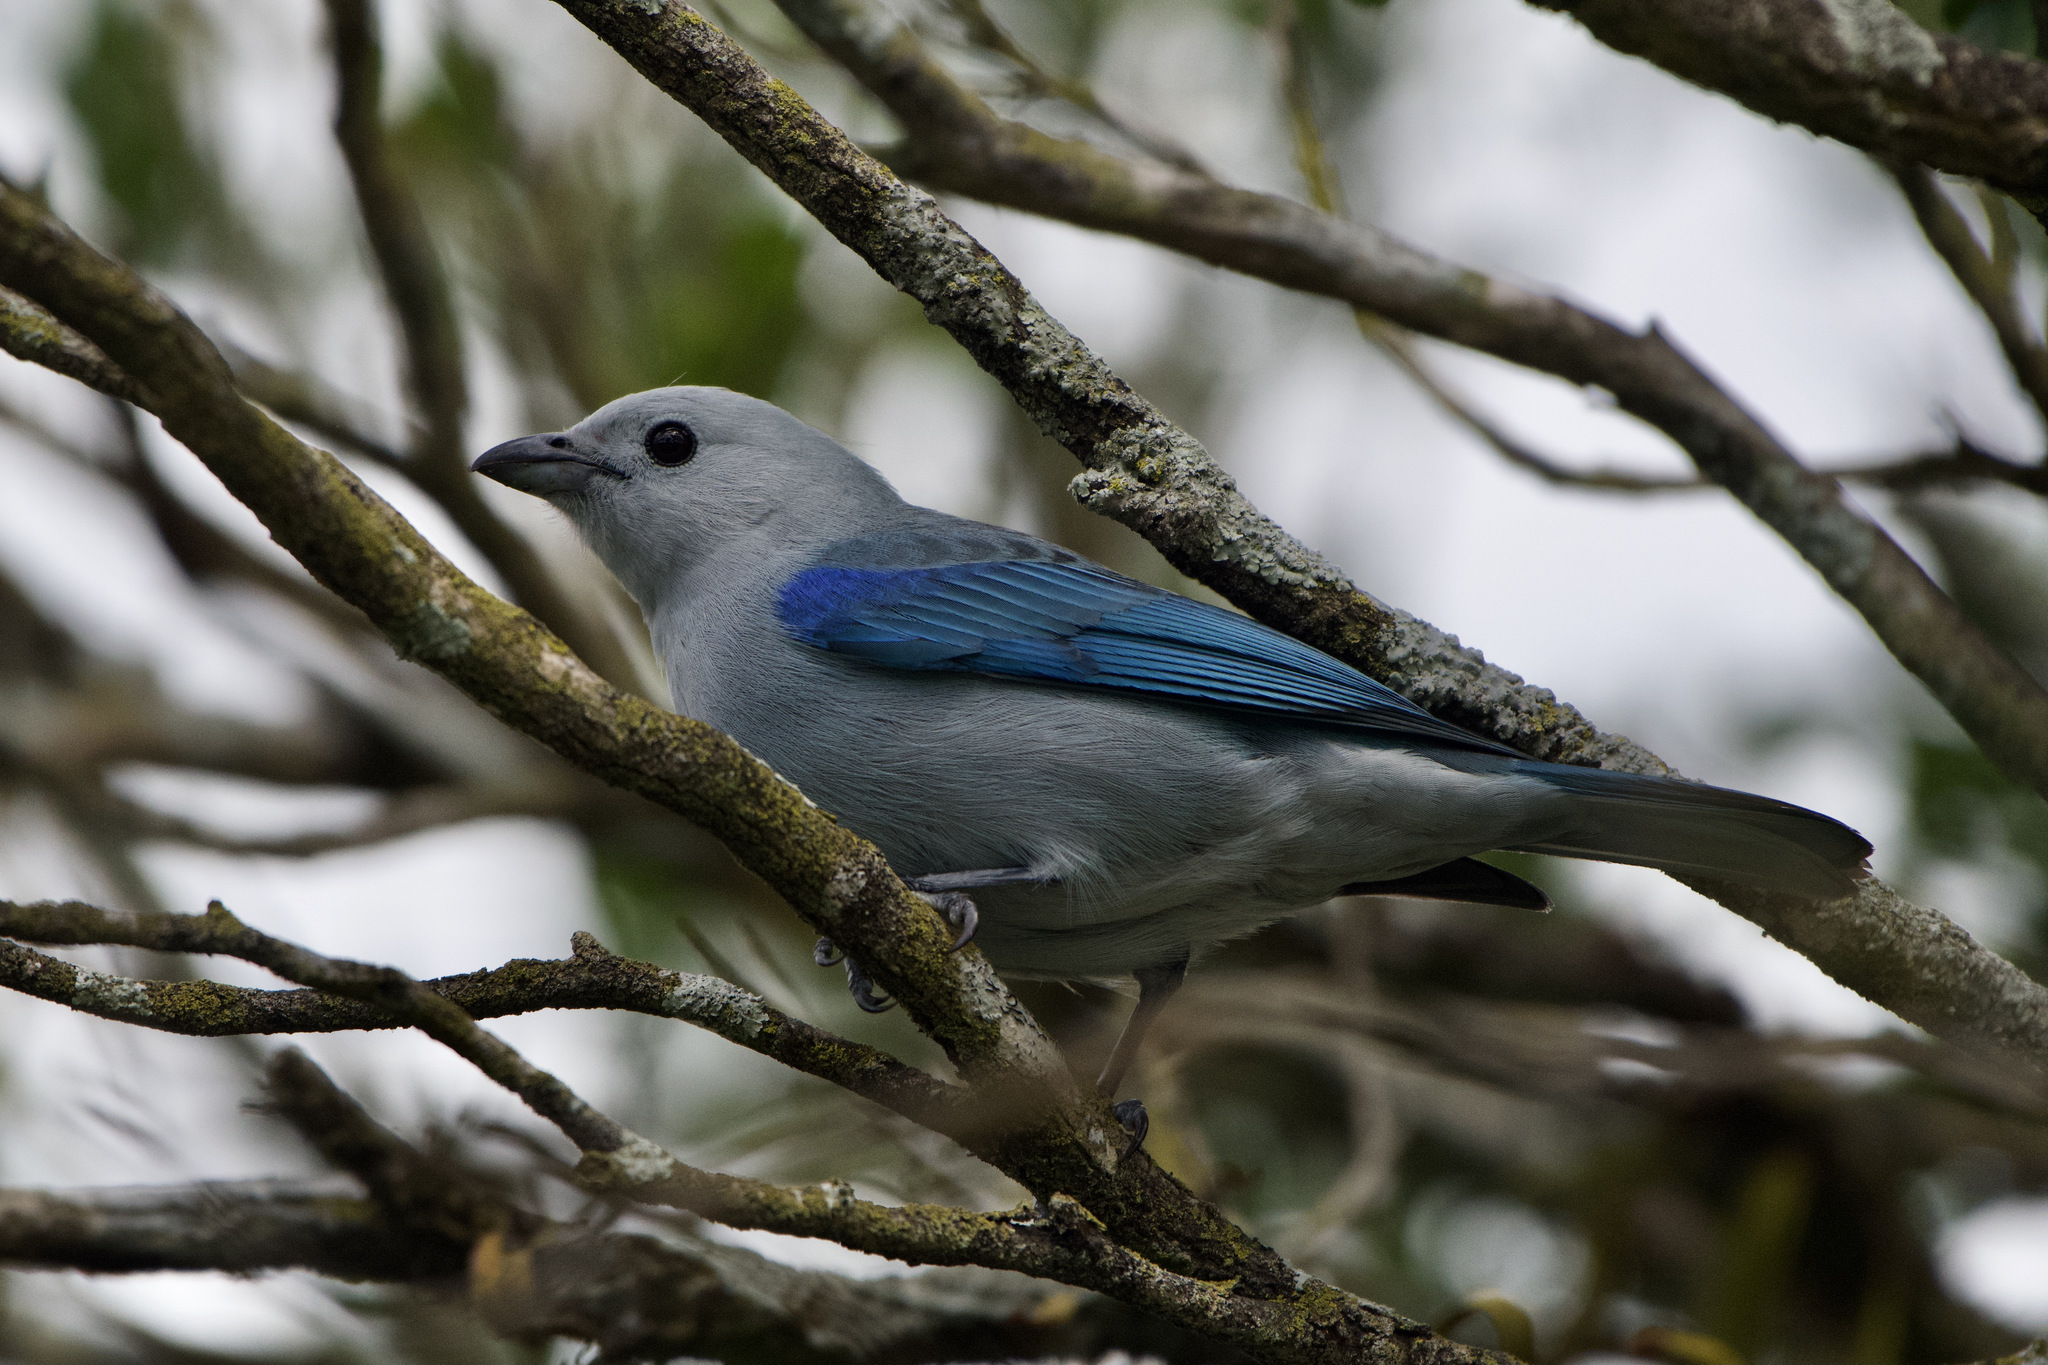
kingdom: Animalia
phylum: Chordata
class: Aves
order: Passeriformes
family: Thraupidae
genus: Thraupis
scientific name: Thraupis episcopus
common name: Blue-grey tanager
